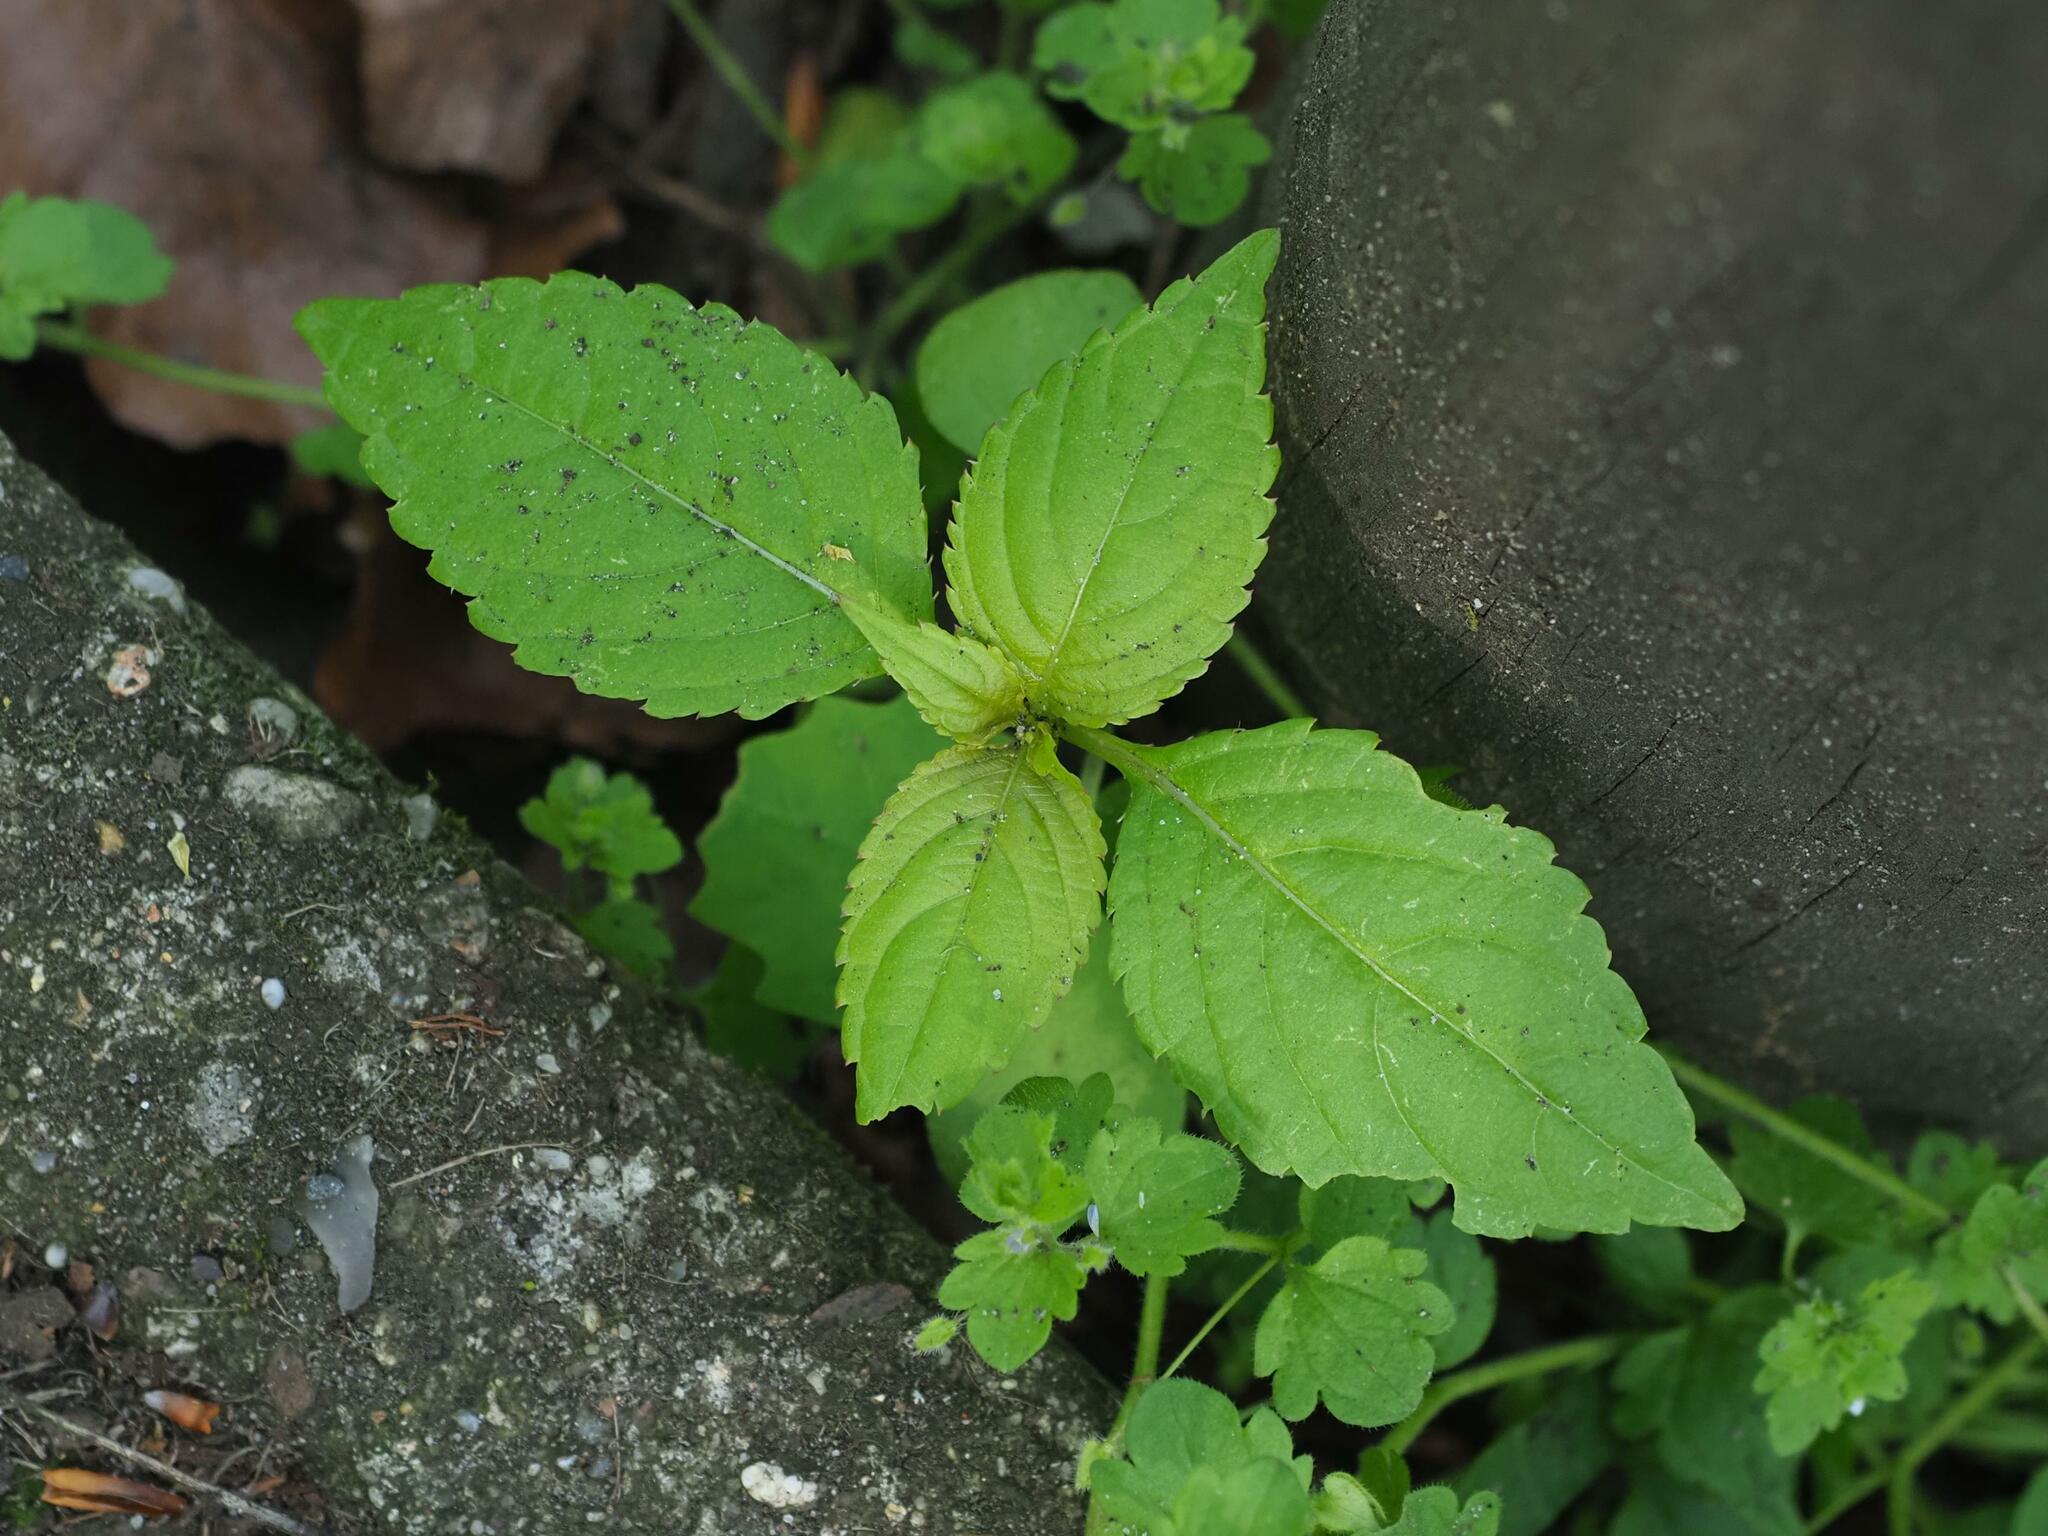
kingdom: Plantae
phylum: Tracheophyta
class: Magnoliopsida
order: Ericales
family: Balsaminaceae
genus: Impatiens
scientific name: Impatiens parviflora
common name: Small balsam
